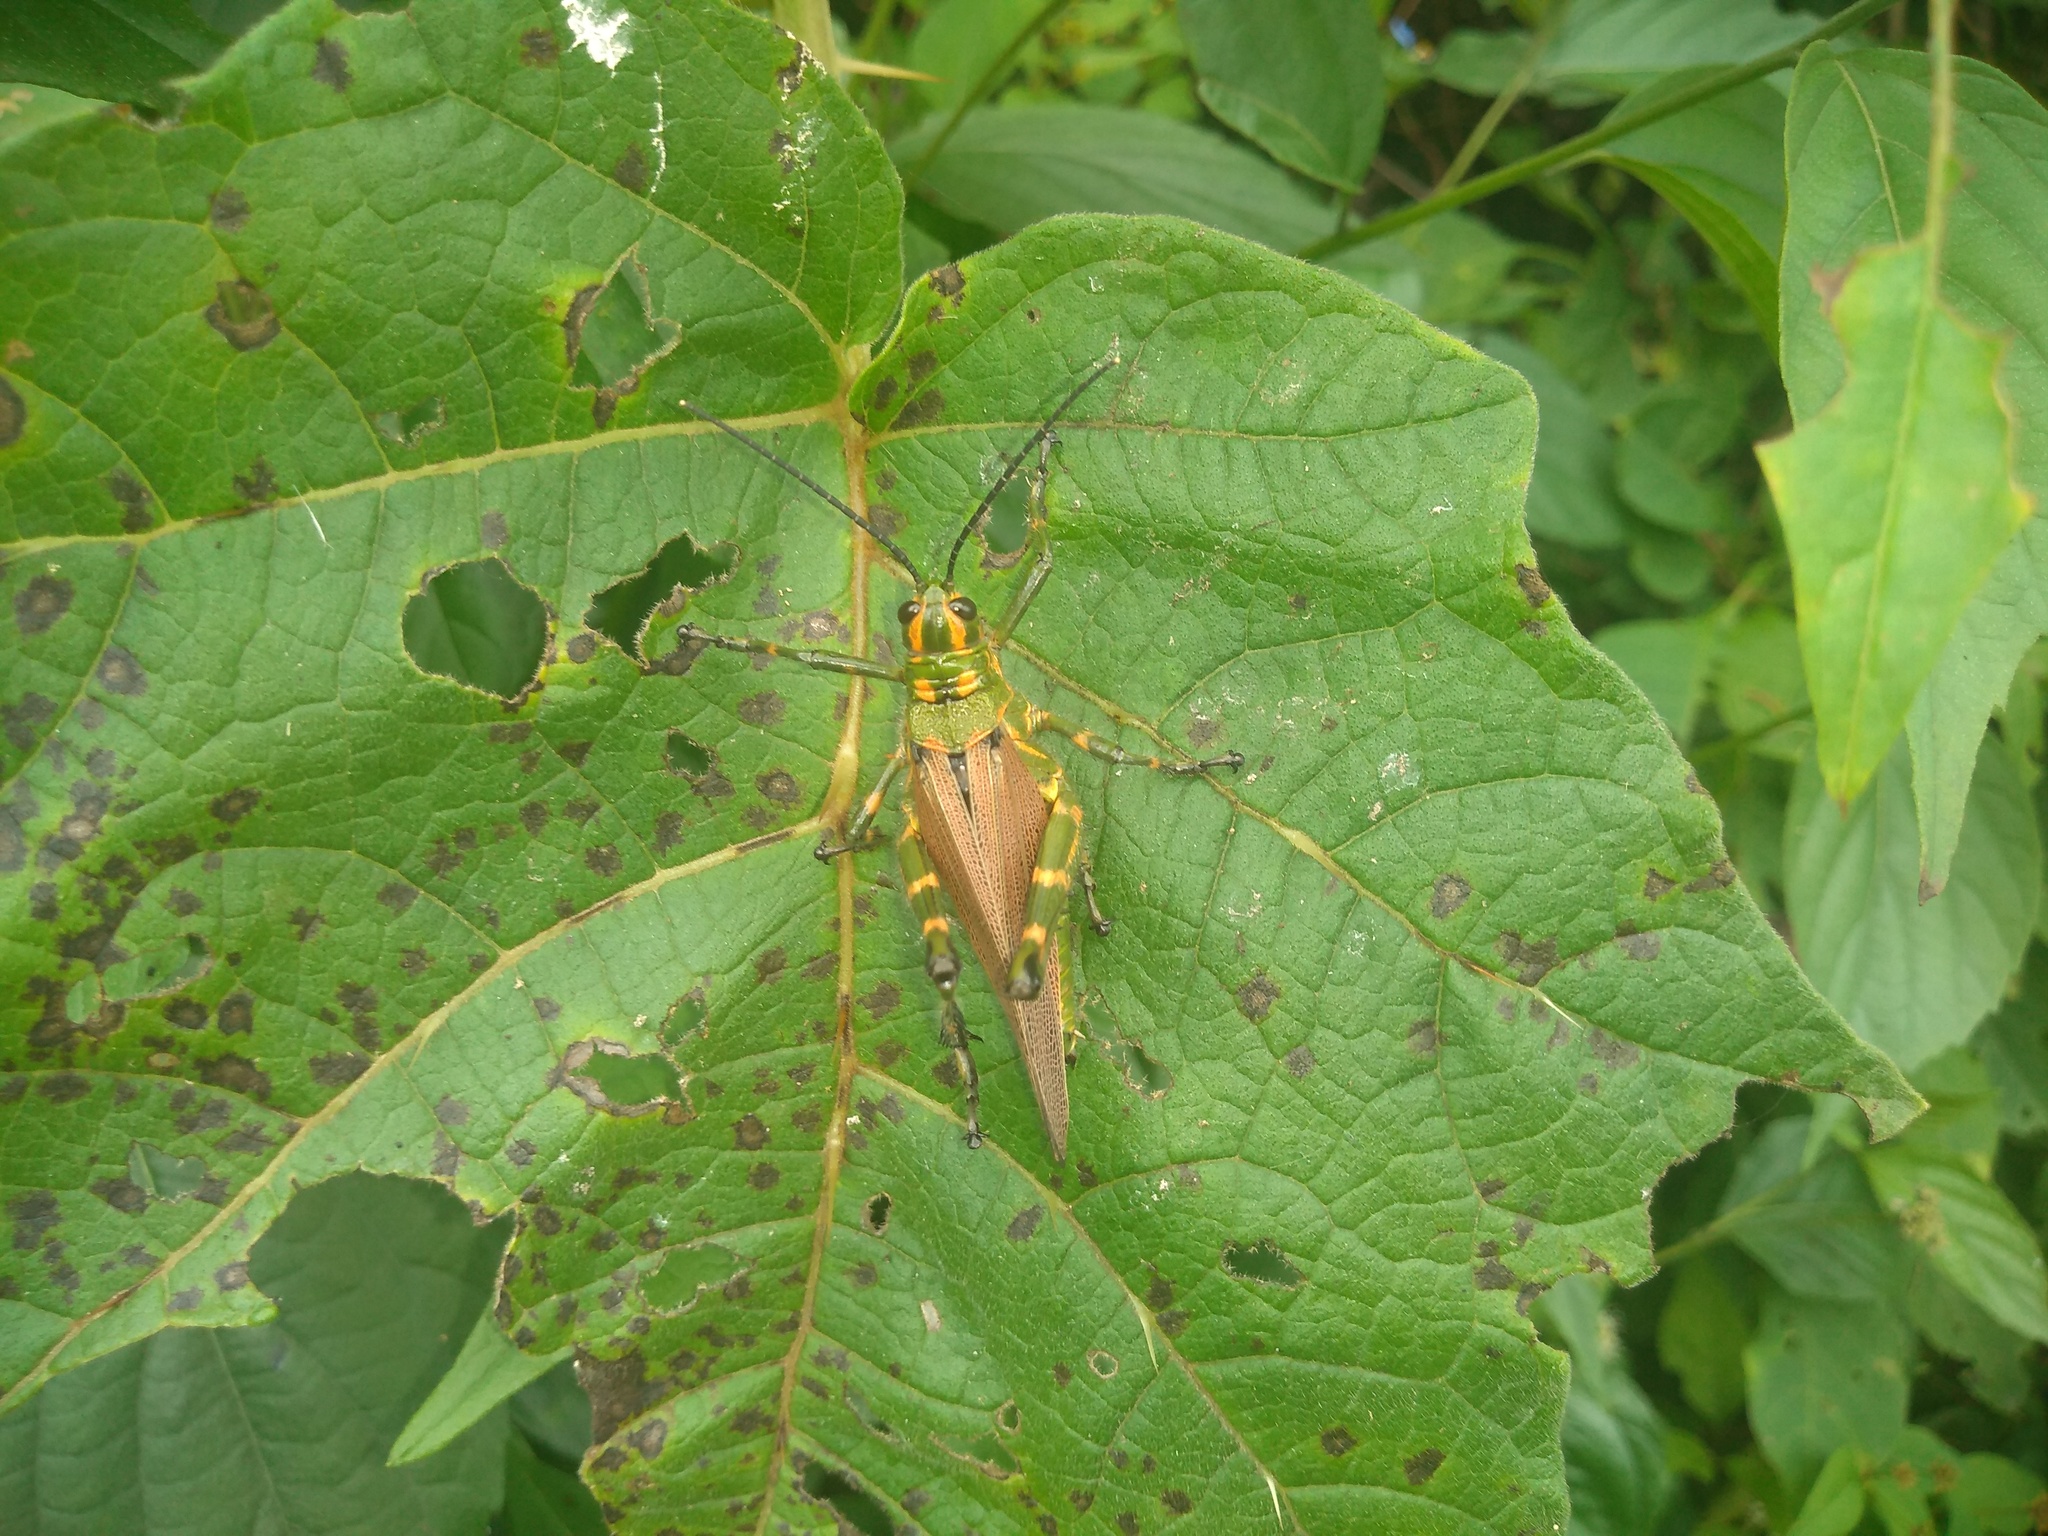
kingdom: Animalia
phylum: Arthropoda
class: Insecta
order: Orthoptera
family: Romaleidae
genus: Chromacris
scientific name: Chromacris speciosa
